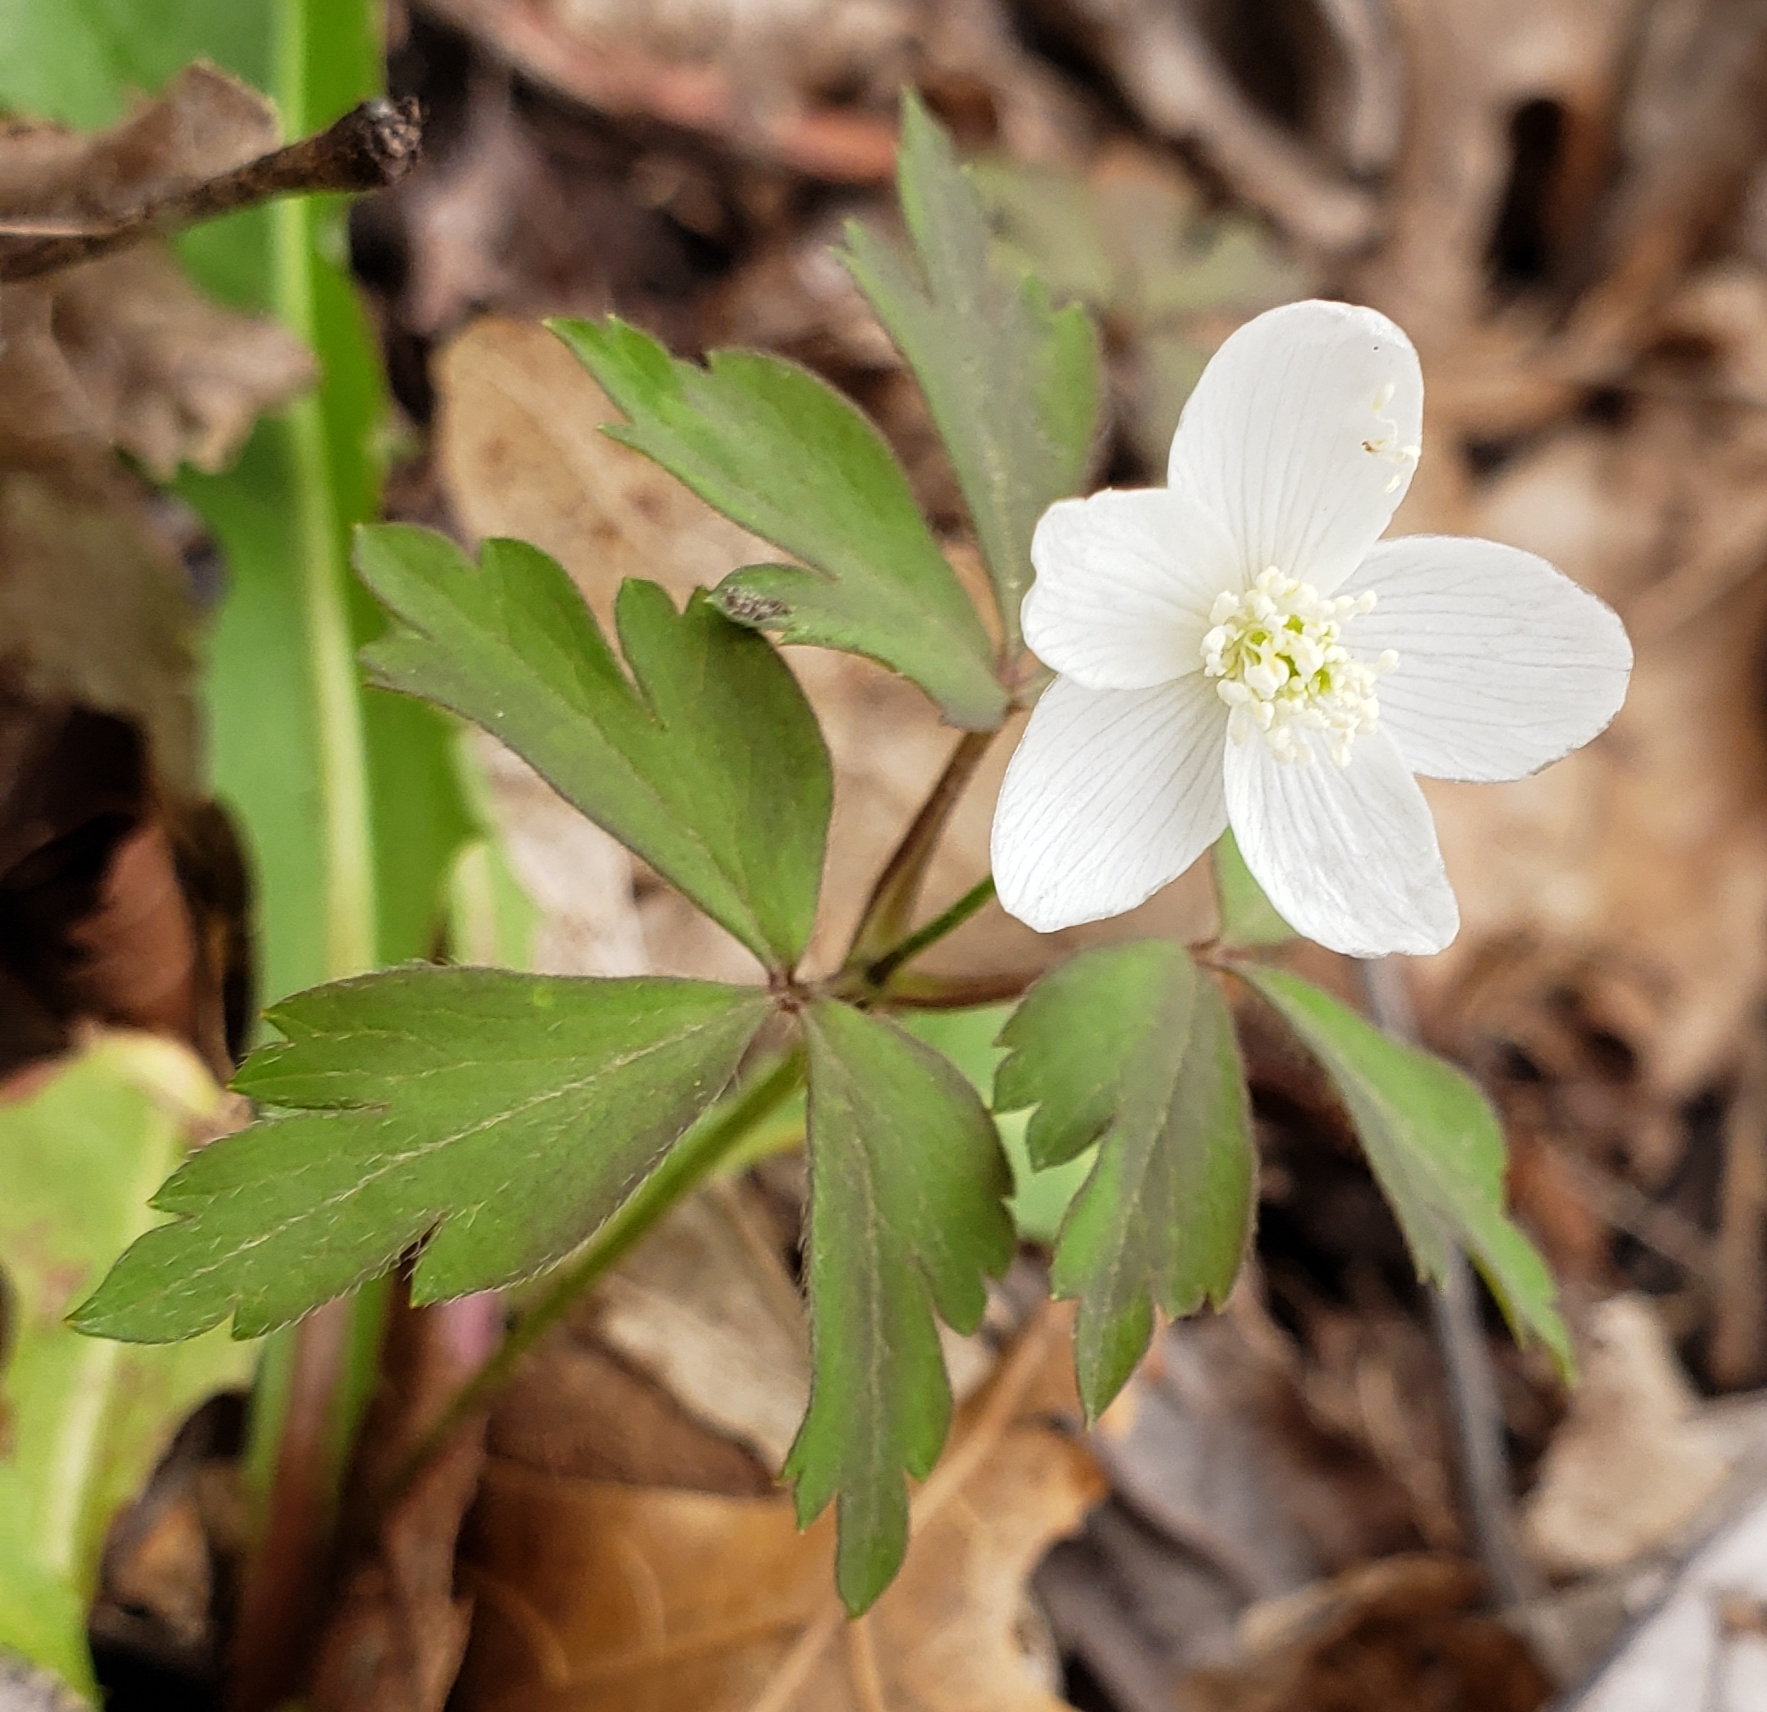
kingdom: Plantae
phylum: Tracheophyta
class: Magnoliopsida
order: Ranunculales
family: Ranunculaceae
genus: Anemone
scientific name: Anemone quinquefolia
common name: Wood anemone
